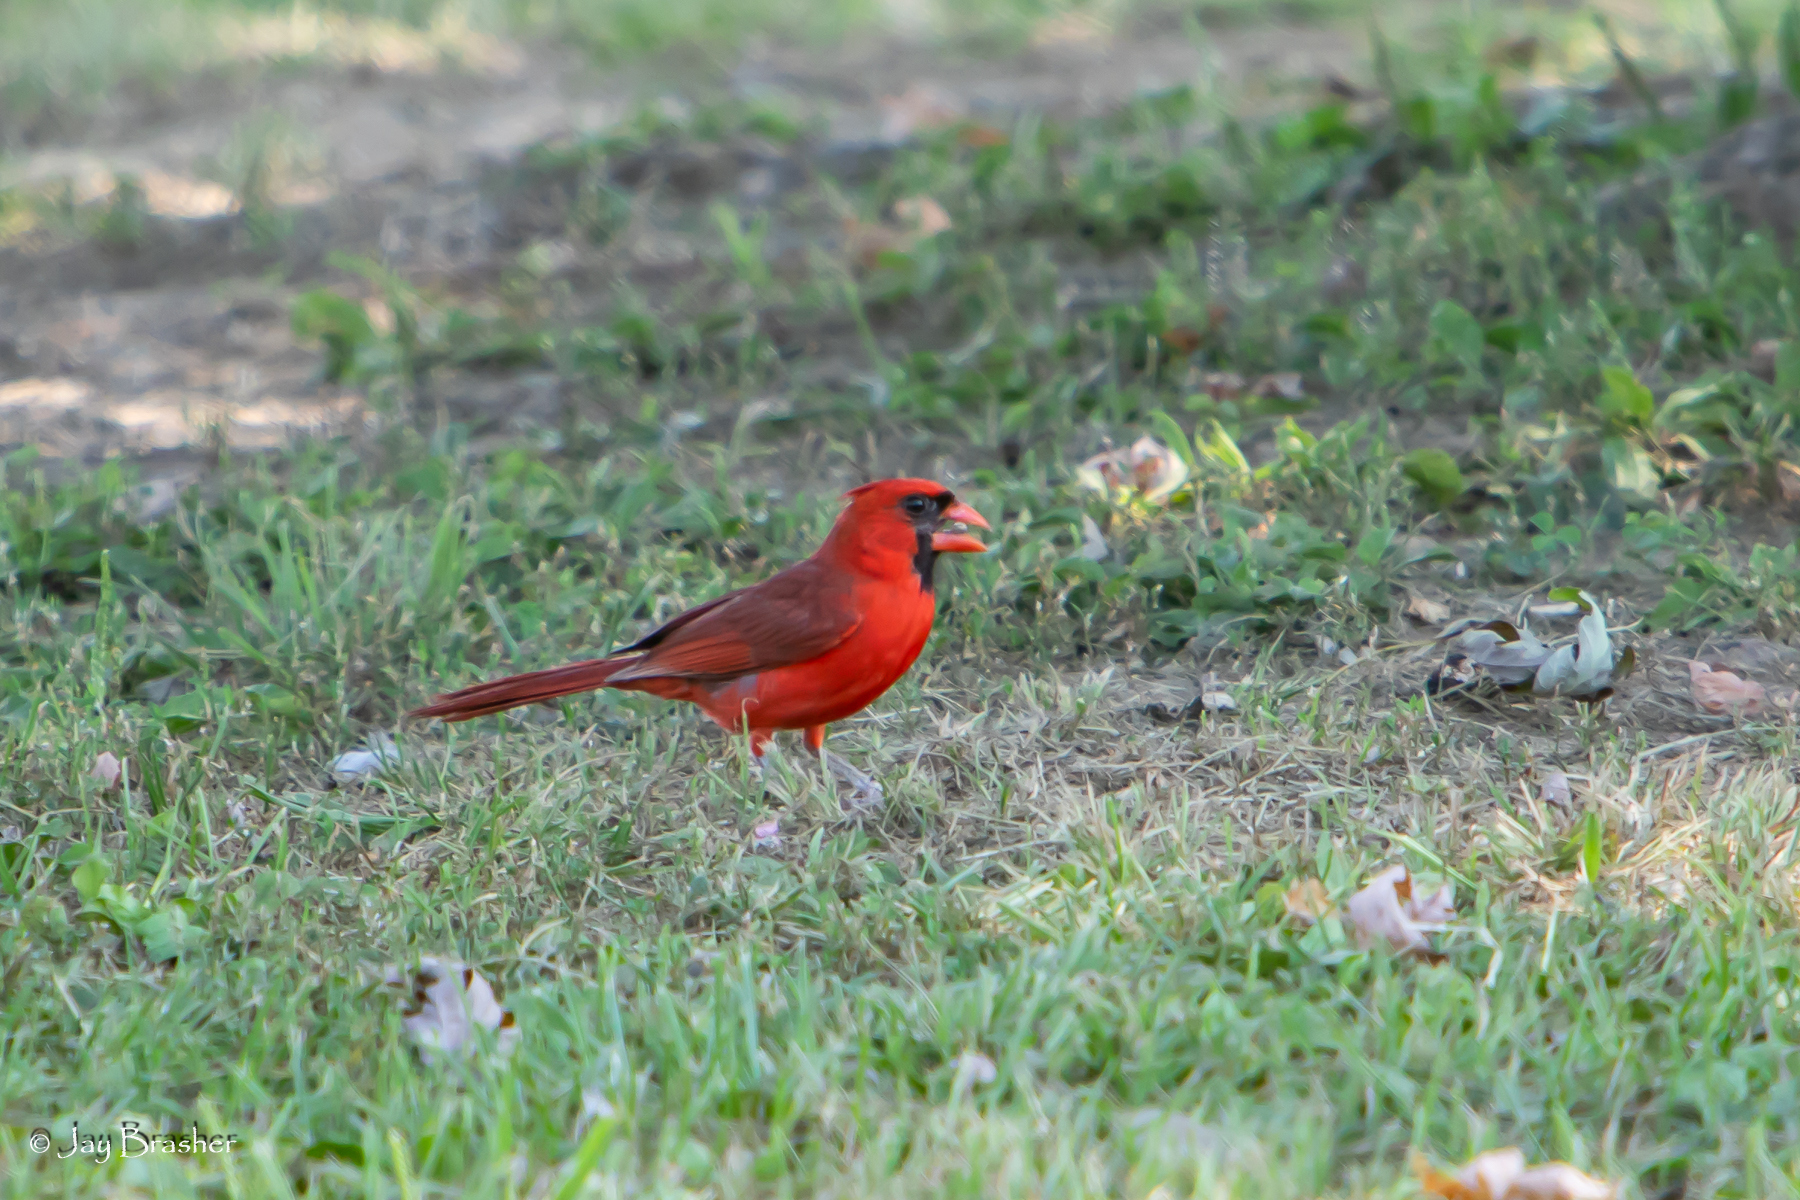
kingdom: Animalia
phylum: Chordata
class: Aves
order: Passeriformes
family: Cardinalidae
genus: Cardinalis
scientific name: Cardinalis cardinalis
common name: Northern cardinal
